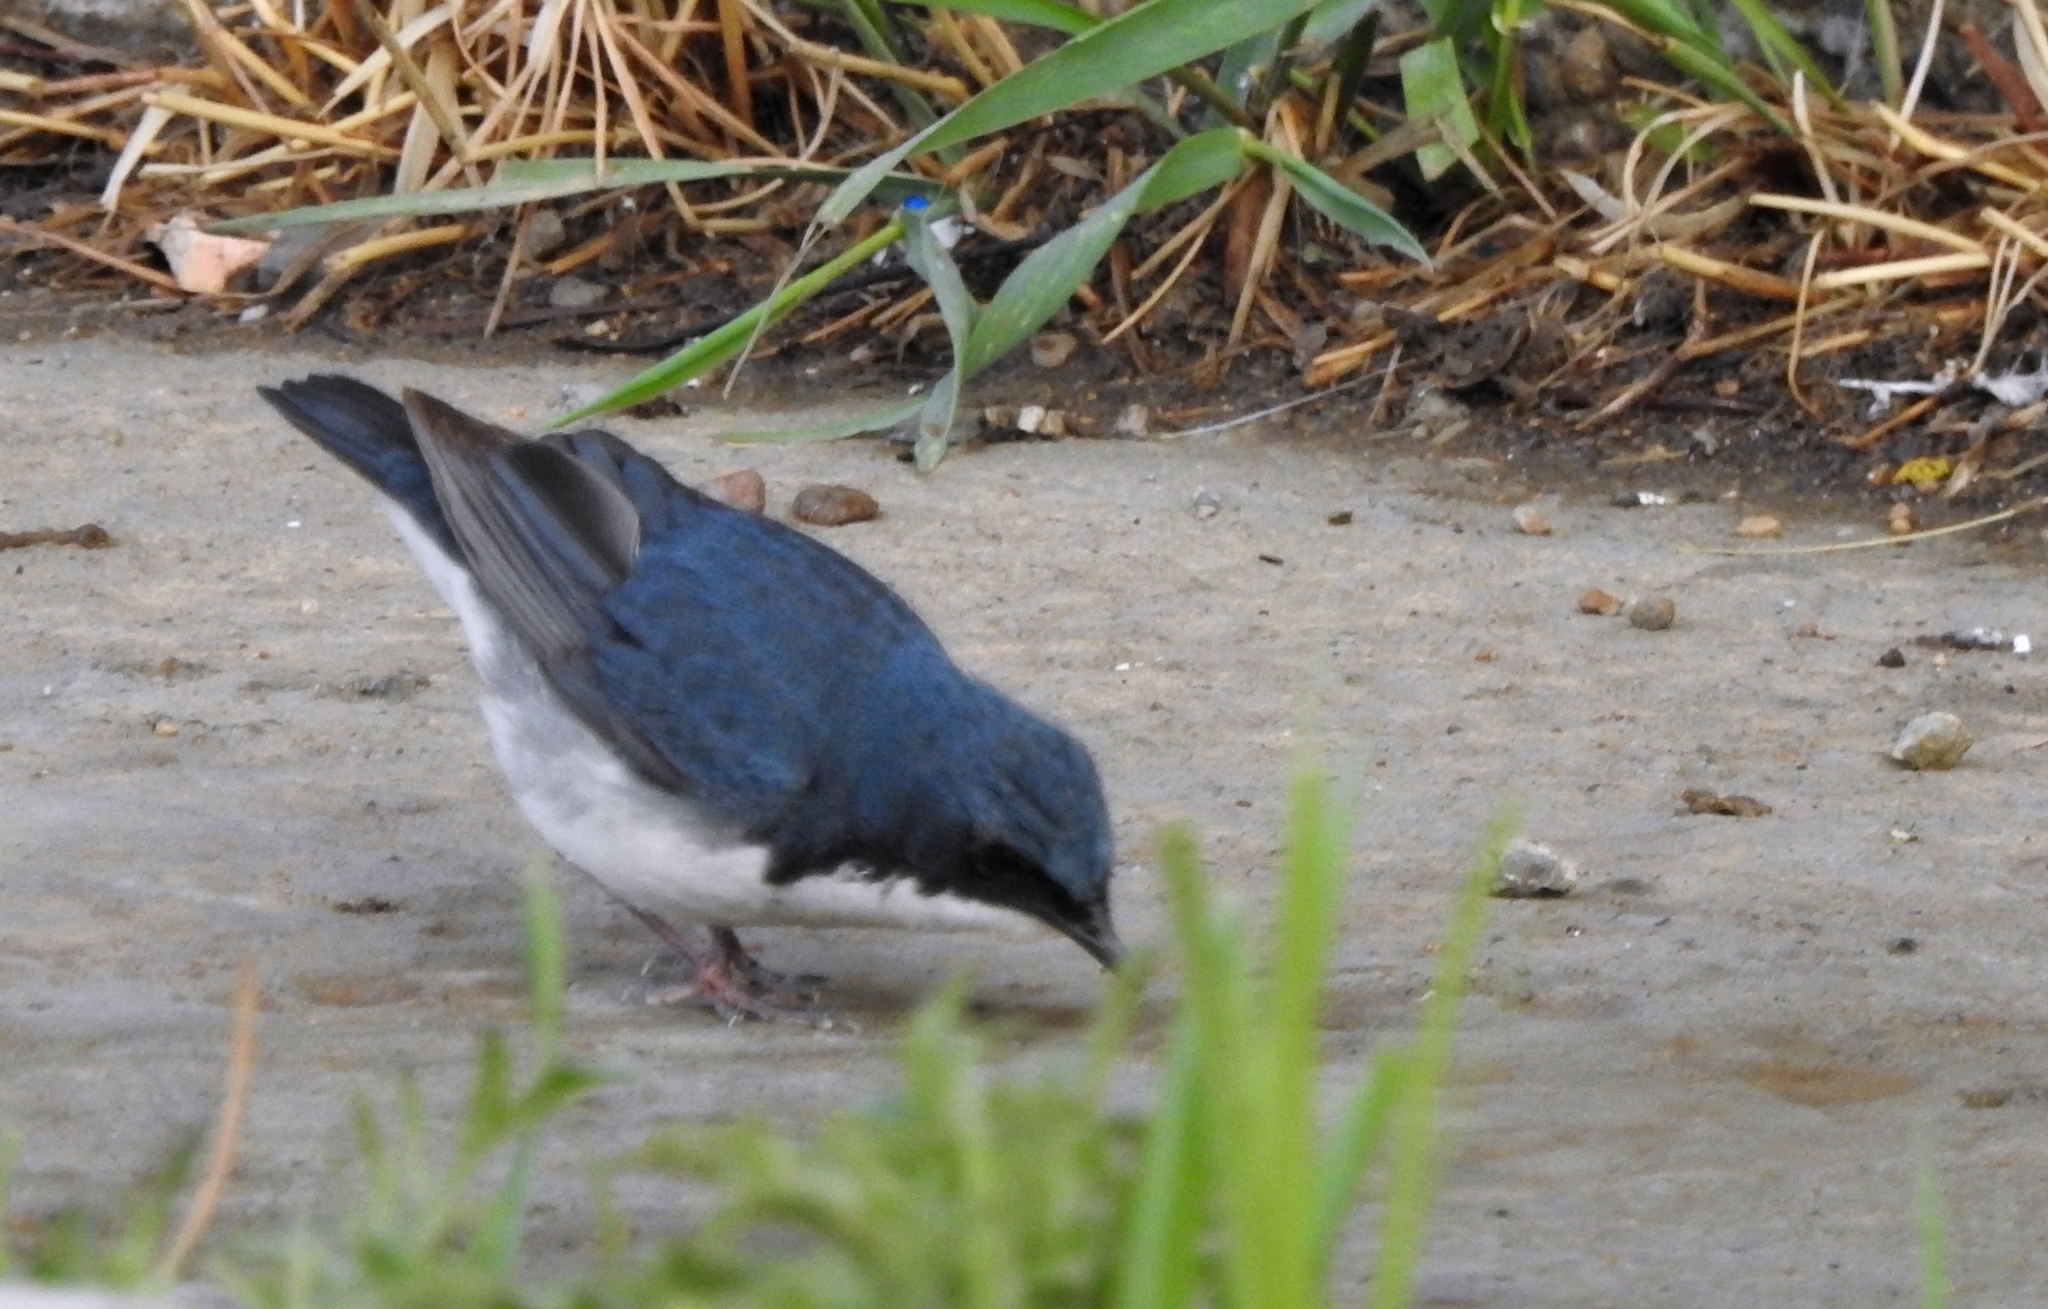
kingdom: Animalia
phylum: Chordata
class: Aves
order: Passeriformes
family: Muscicapidae
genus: Luscinia
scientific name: Luscinia cyane
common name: Siberian blue robin
